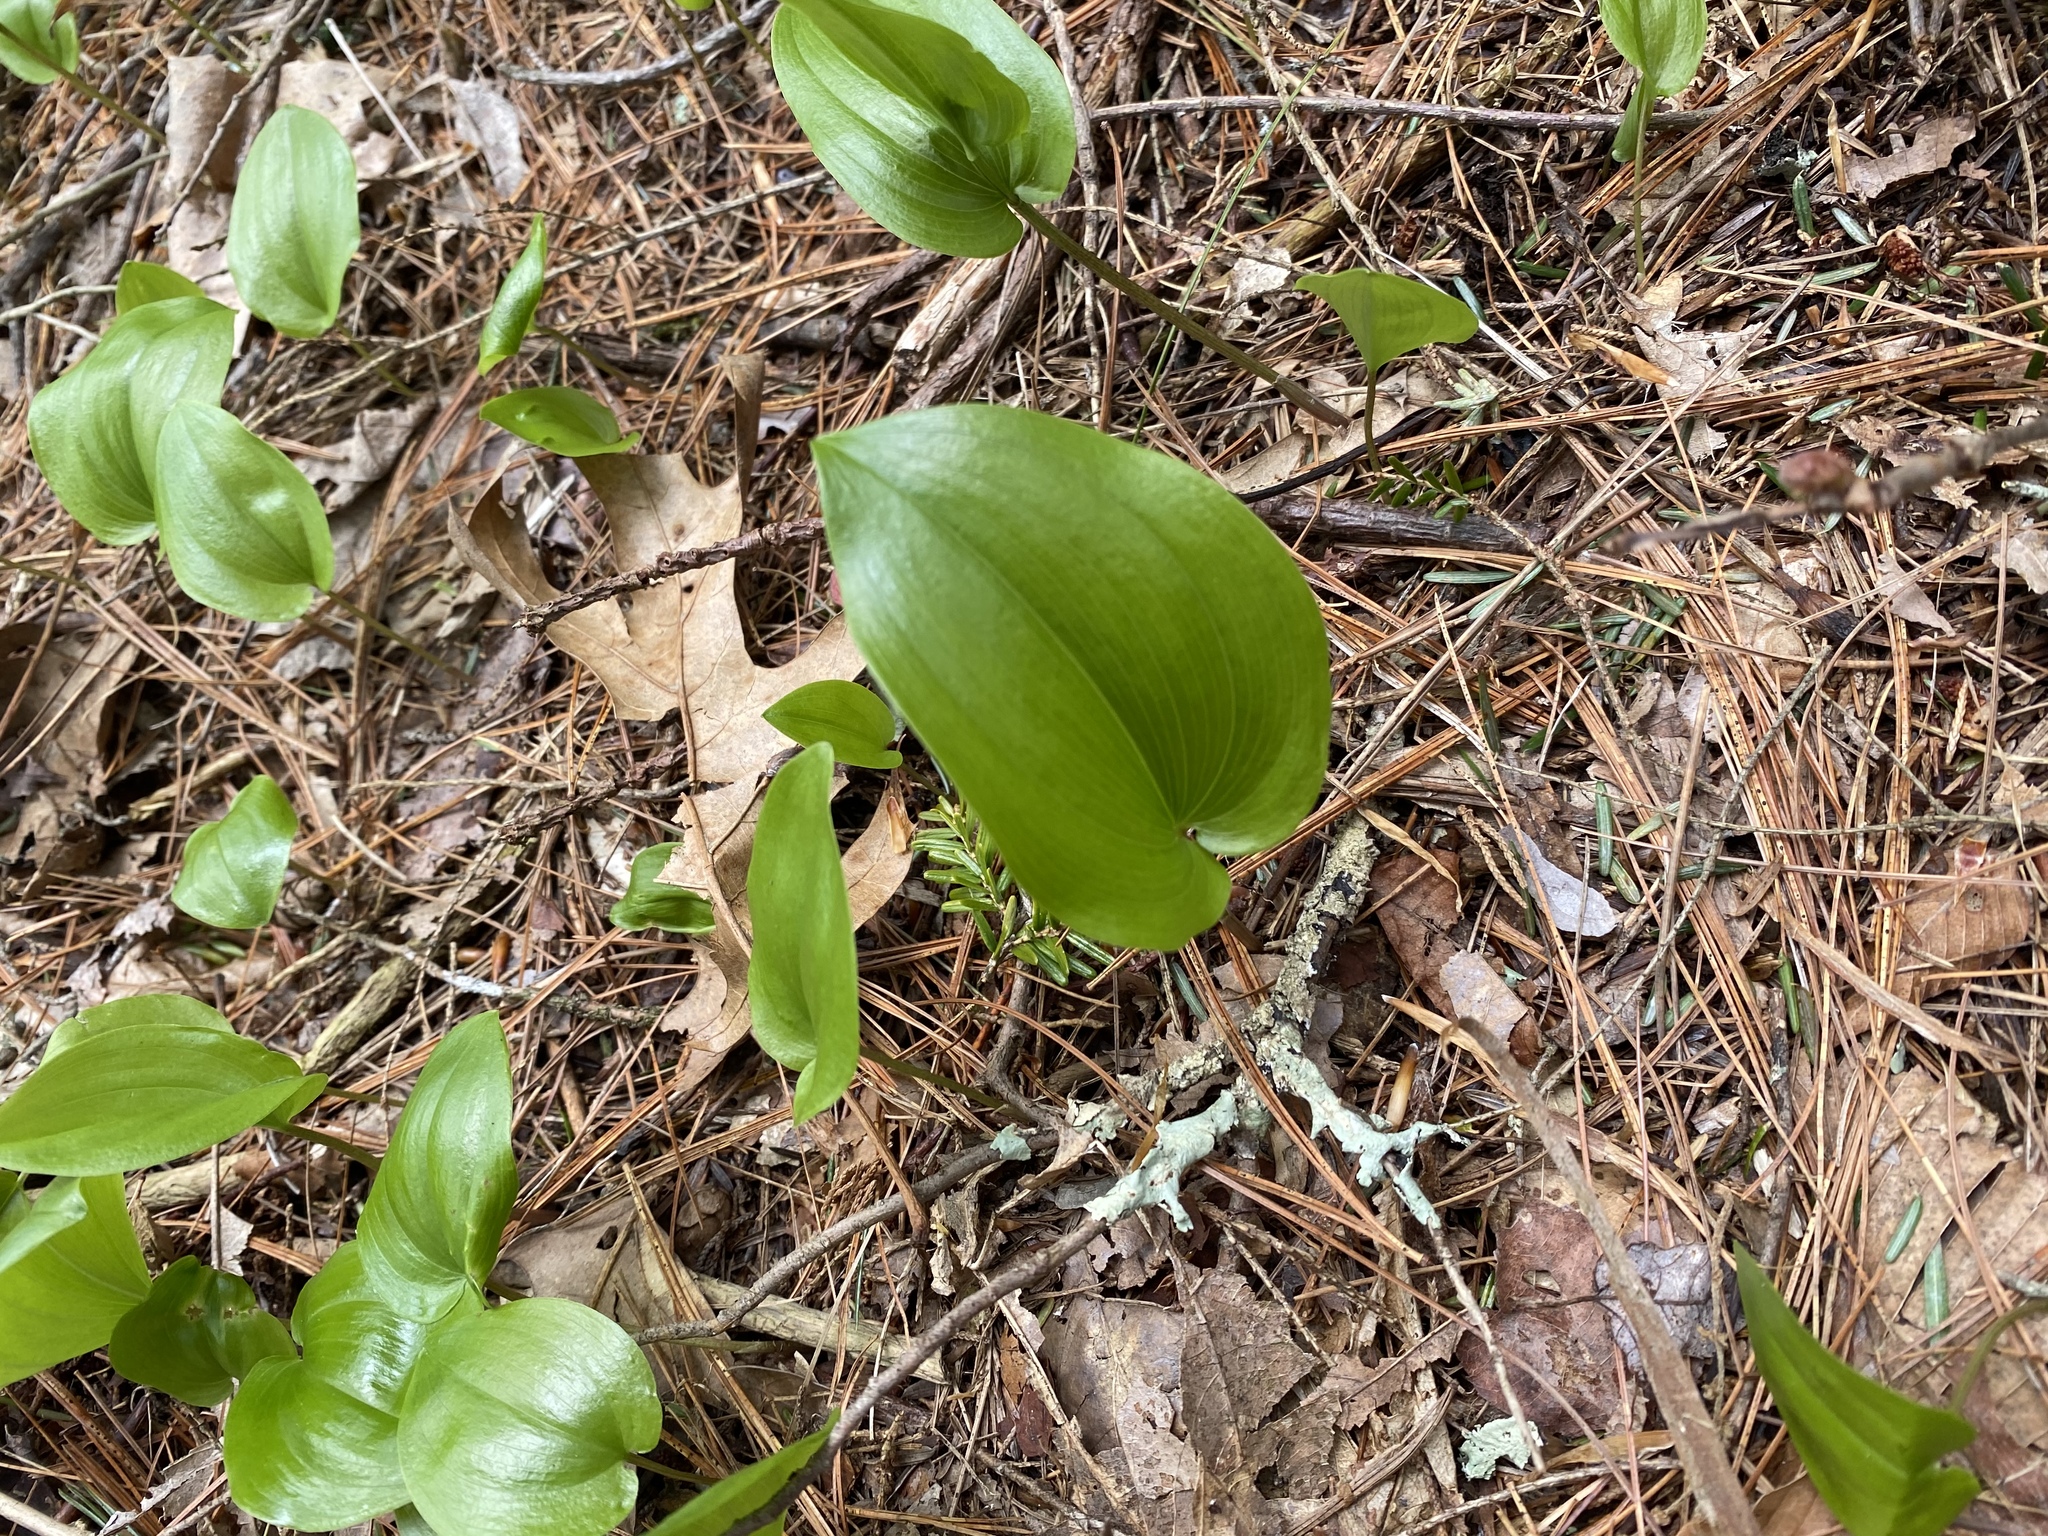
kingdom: Plantae
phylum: Tracheophyta
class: Liliopsida
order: Asparagales
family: Asparagaceae
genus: Maianthemum
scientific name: Maianthemum canadense
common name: False lily-of-the-valley
